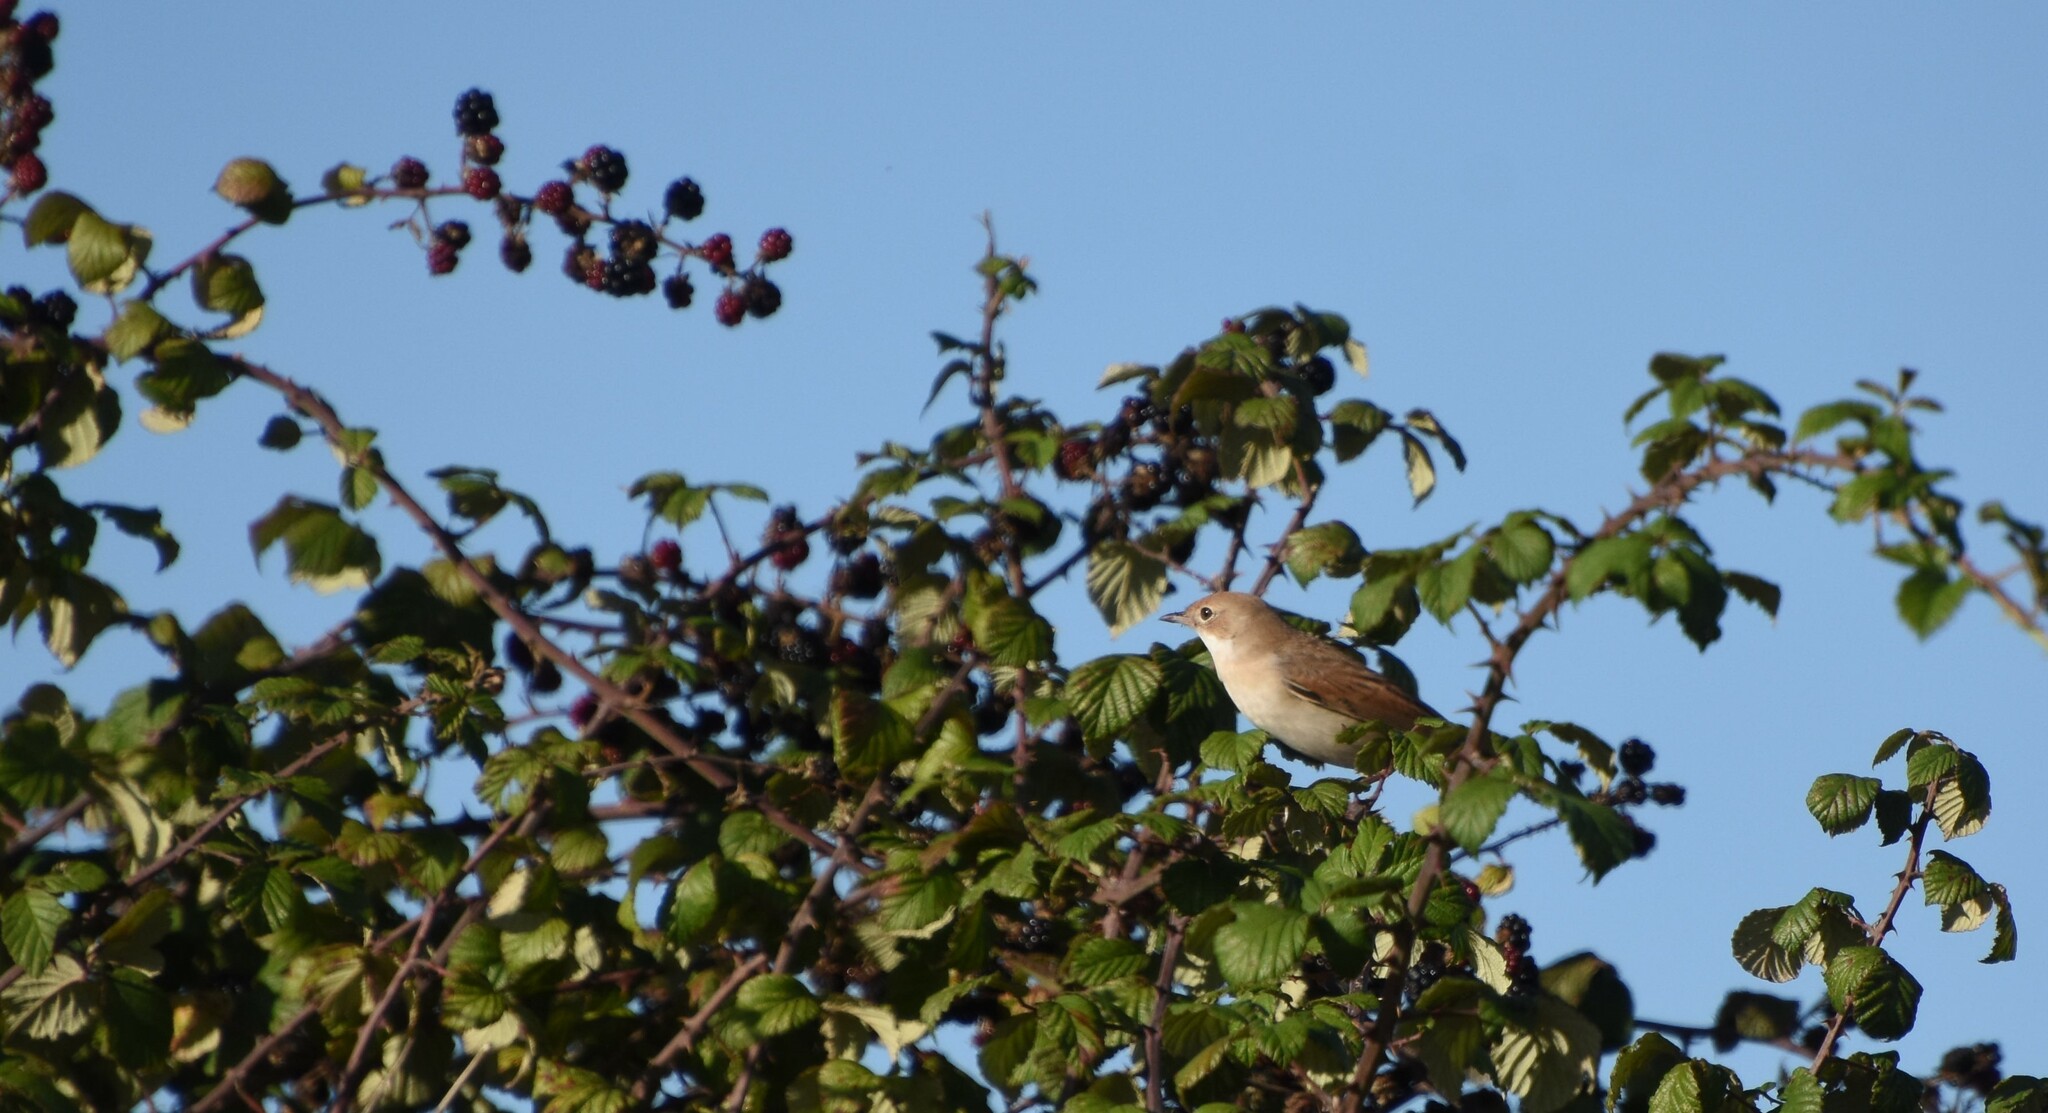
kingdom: Animalia
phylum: Chordata
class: Aves
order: Passeriformes
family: Sylviidae
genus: Sylvia
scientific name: Sylvia communis
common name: Common whitethroat
